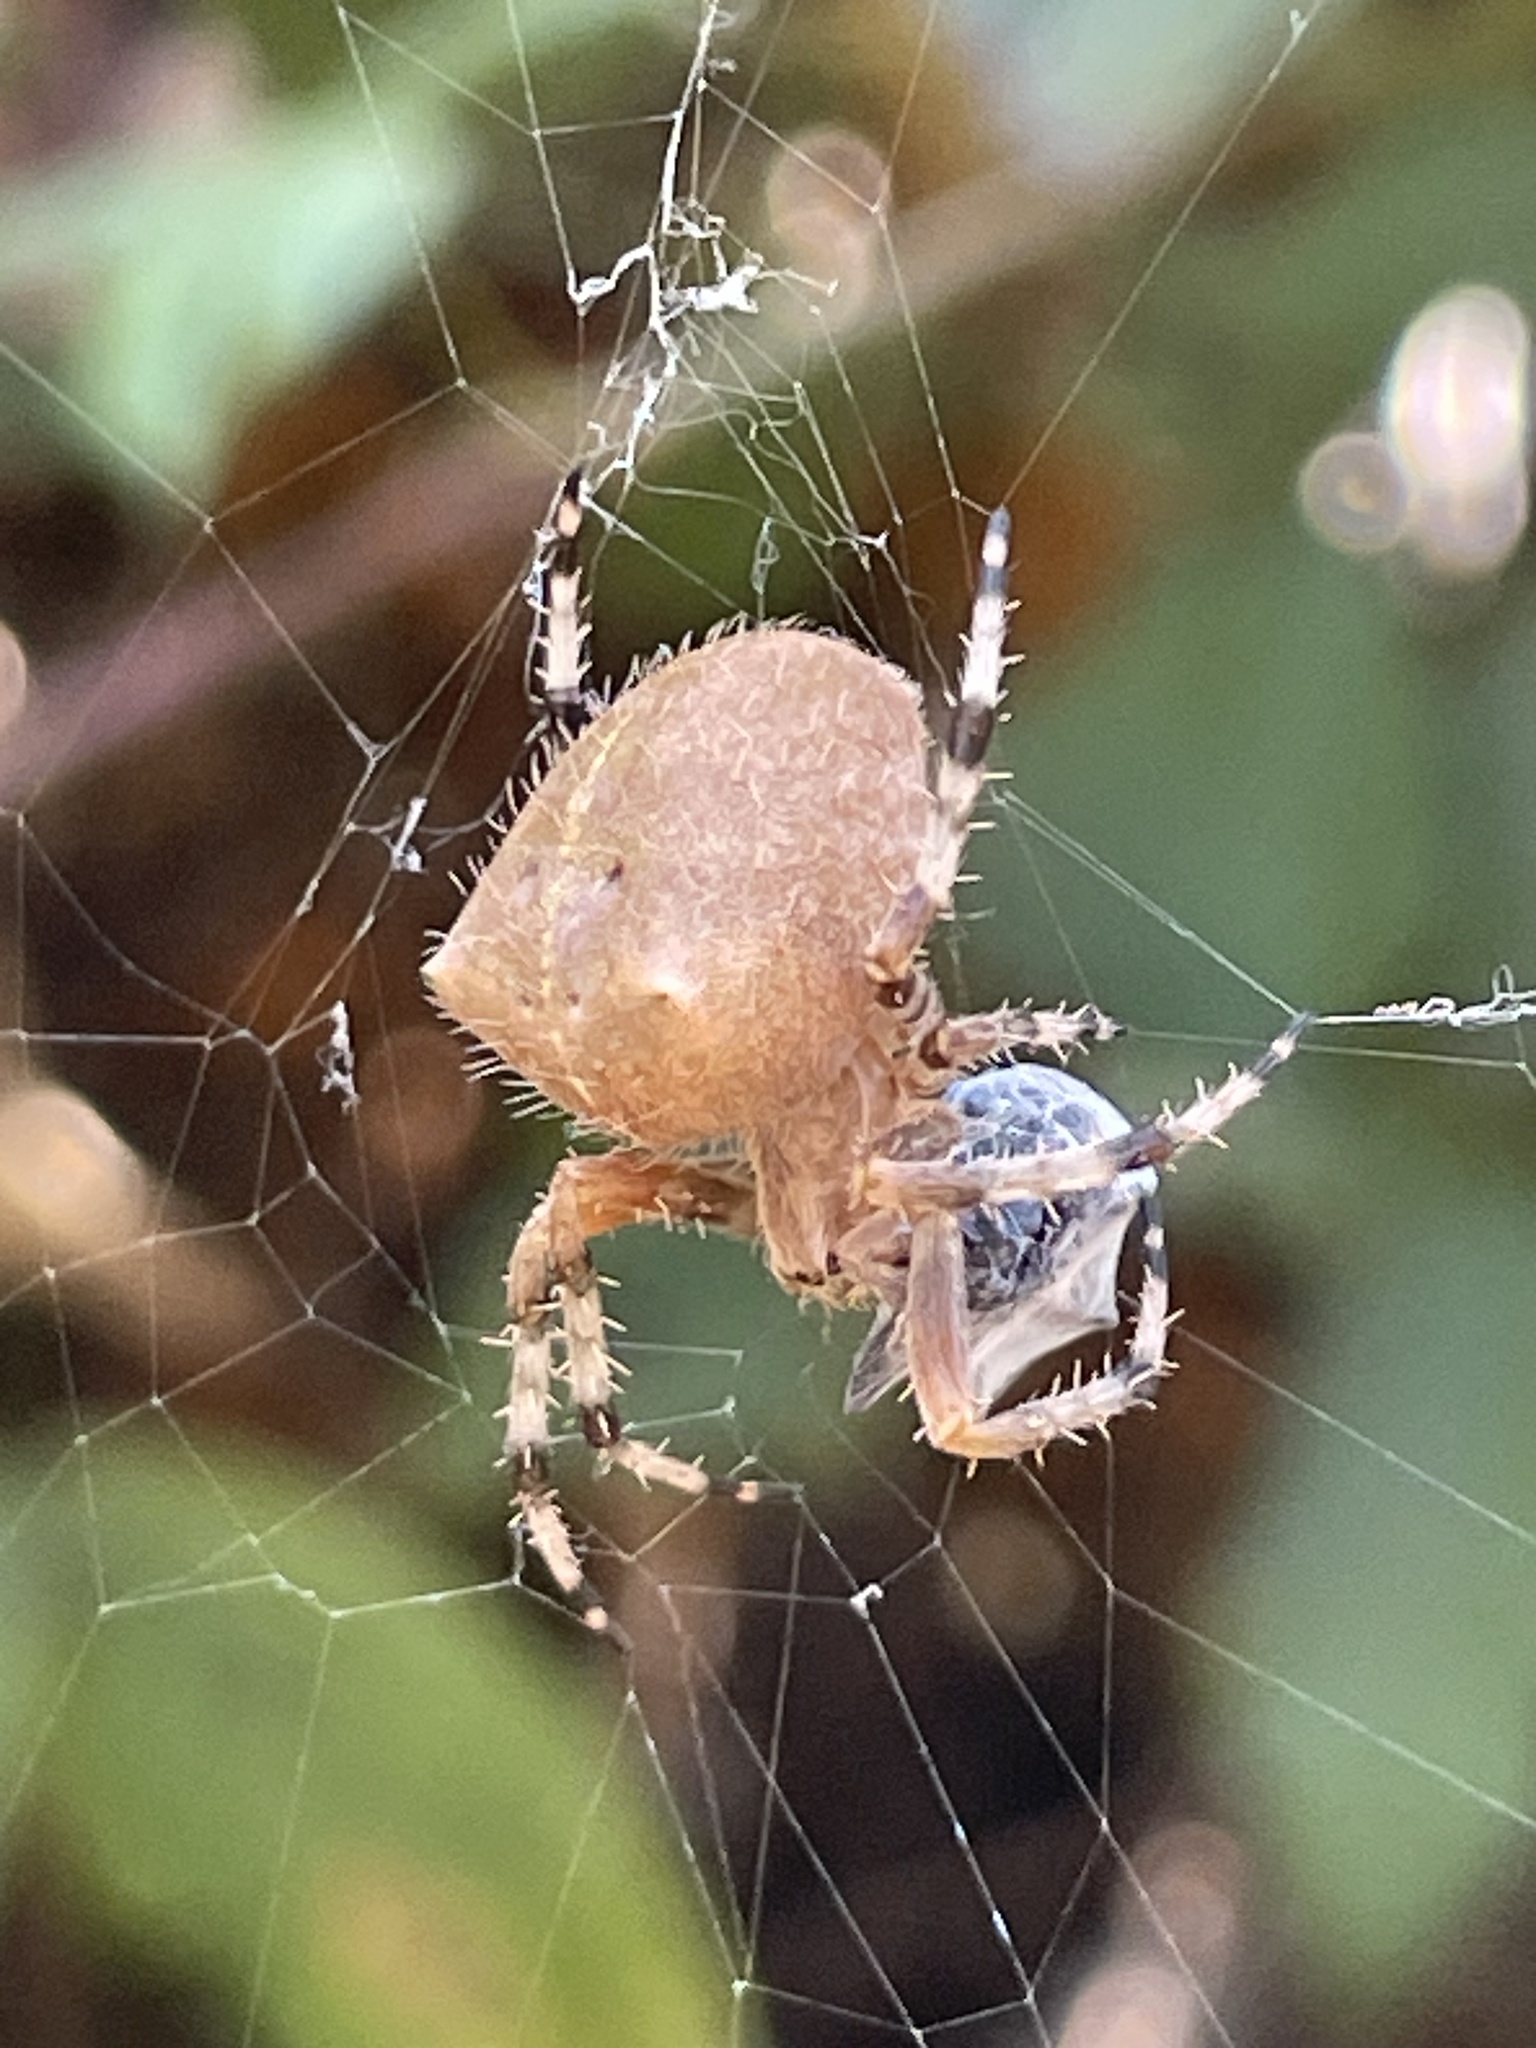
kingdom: Animalia
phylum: Arthropoda
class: Arachnida
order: Araneae
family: Araneidae
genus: Araneus
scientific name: Araneus gemma
